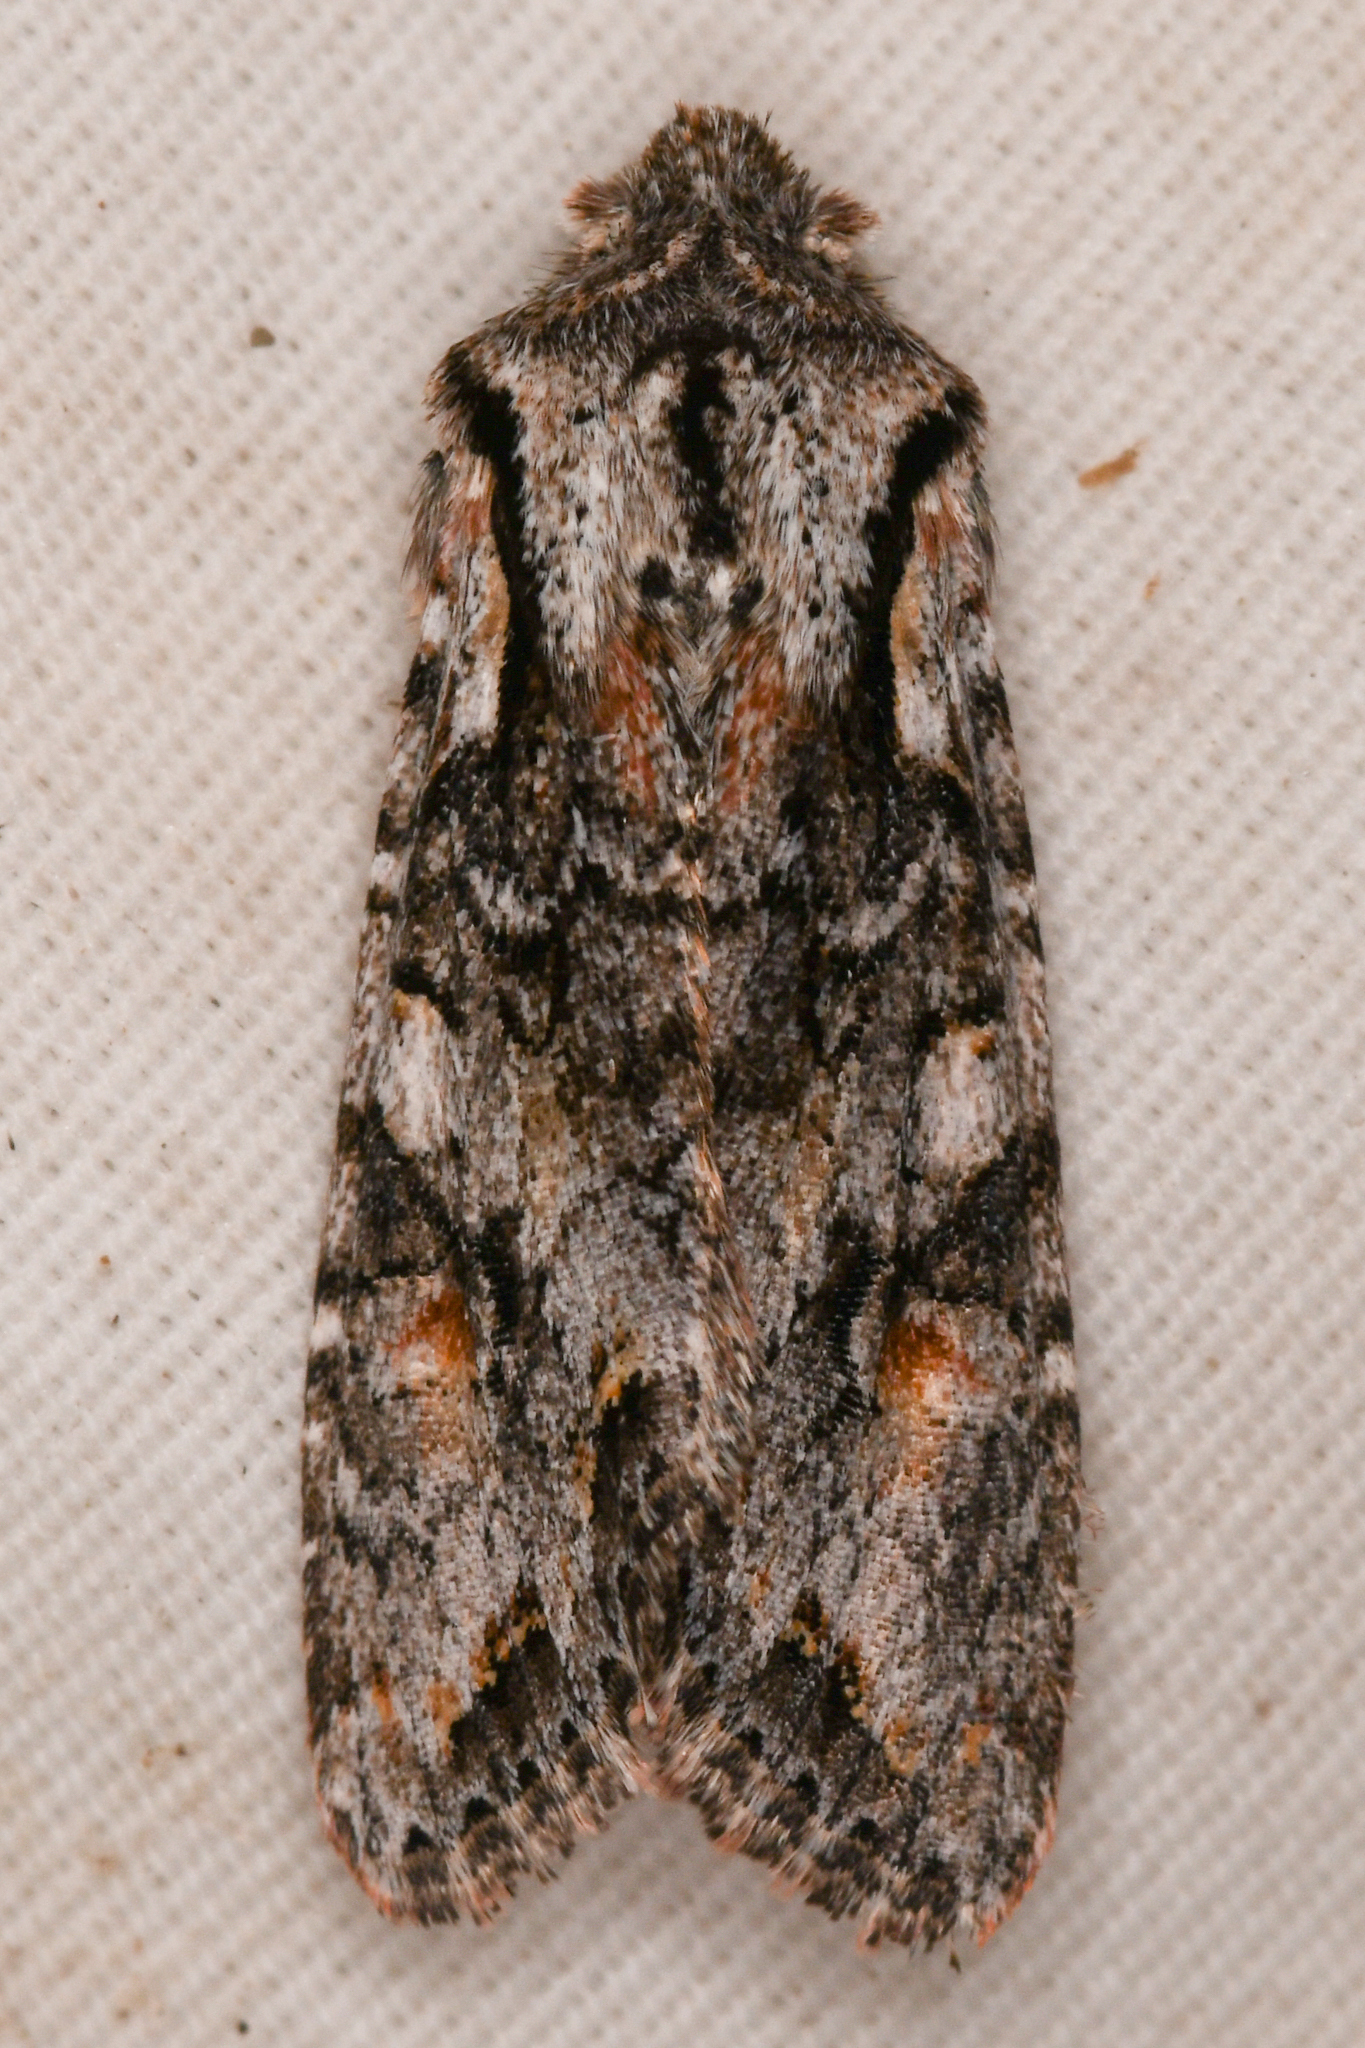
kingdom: Animalia
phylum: Arthropoda
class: Insecta
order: Lepidoptera
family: Noctuidae
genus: Egira
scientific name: Egira hiemalis
